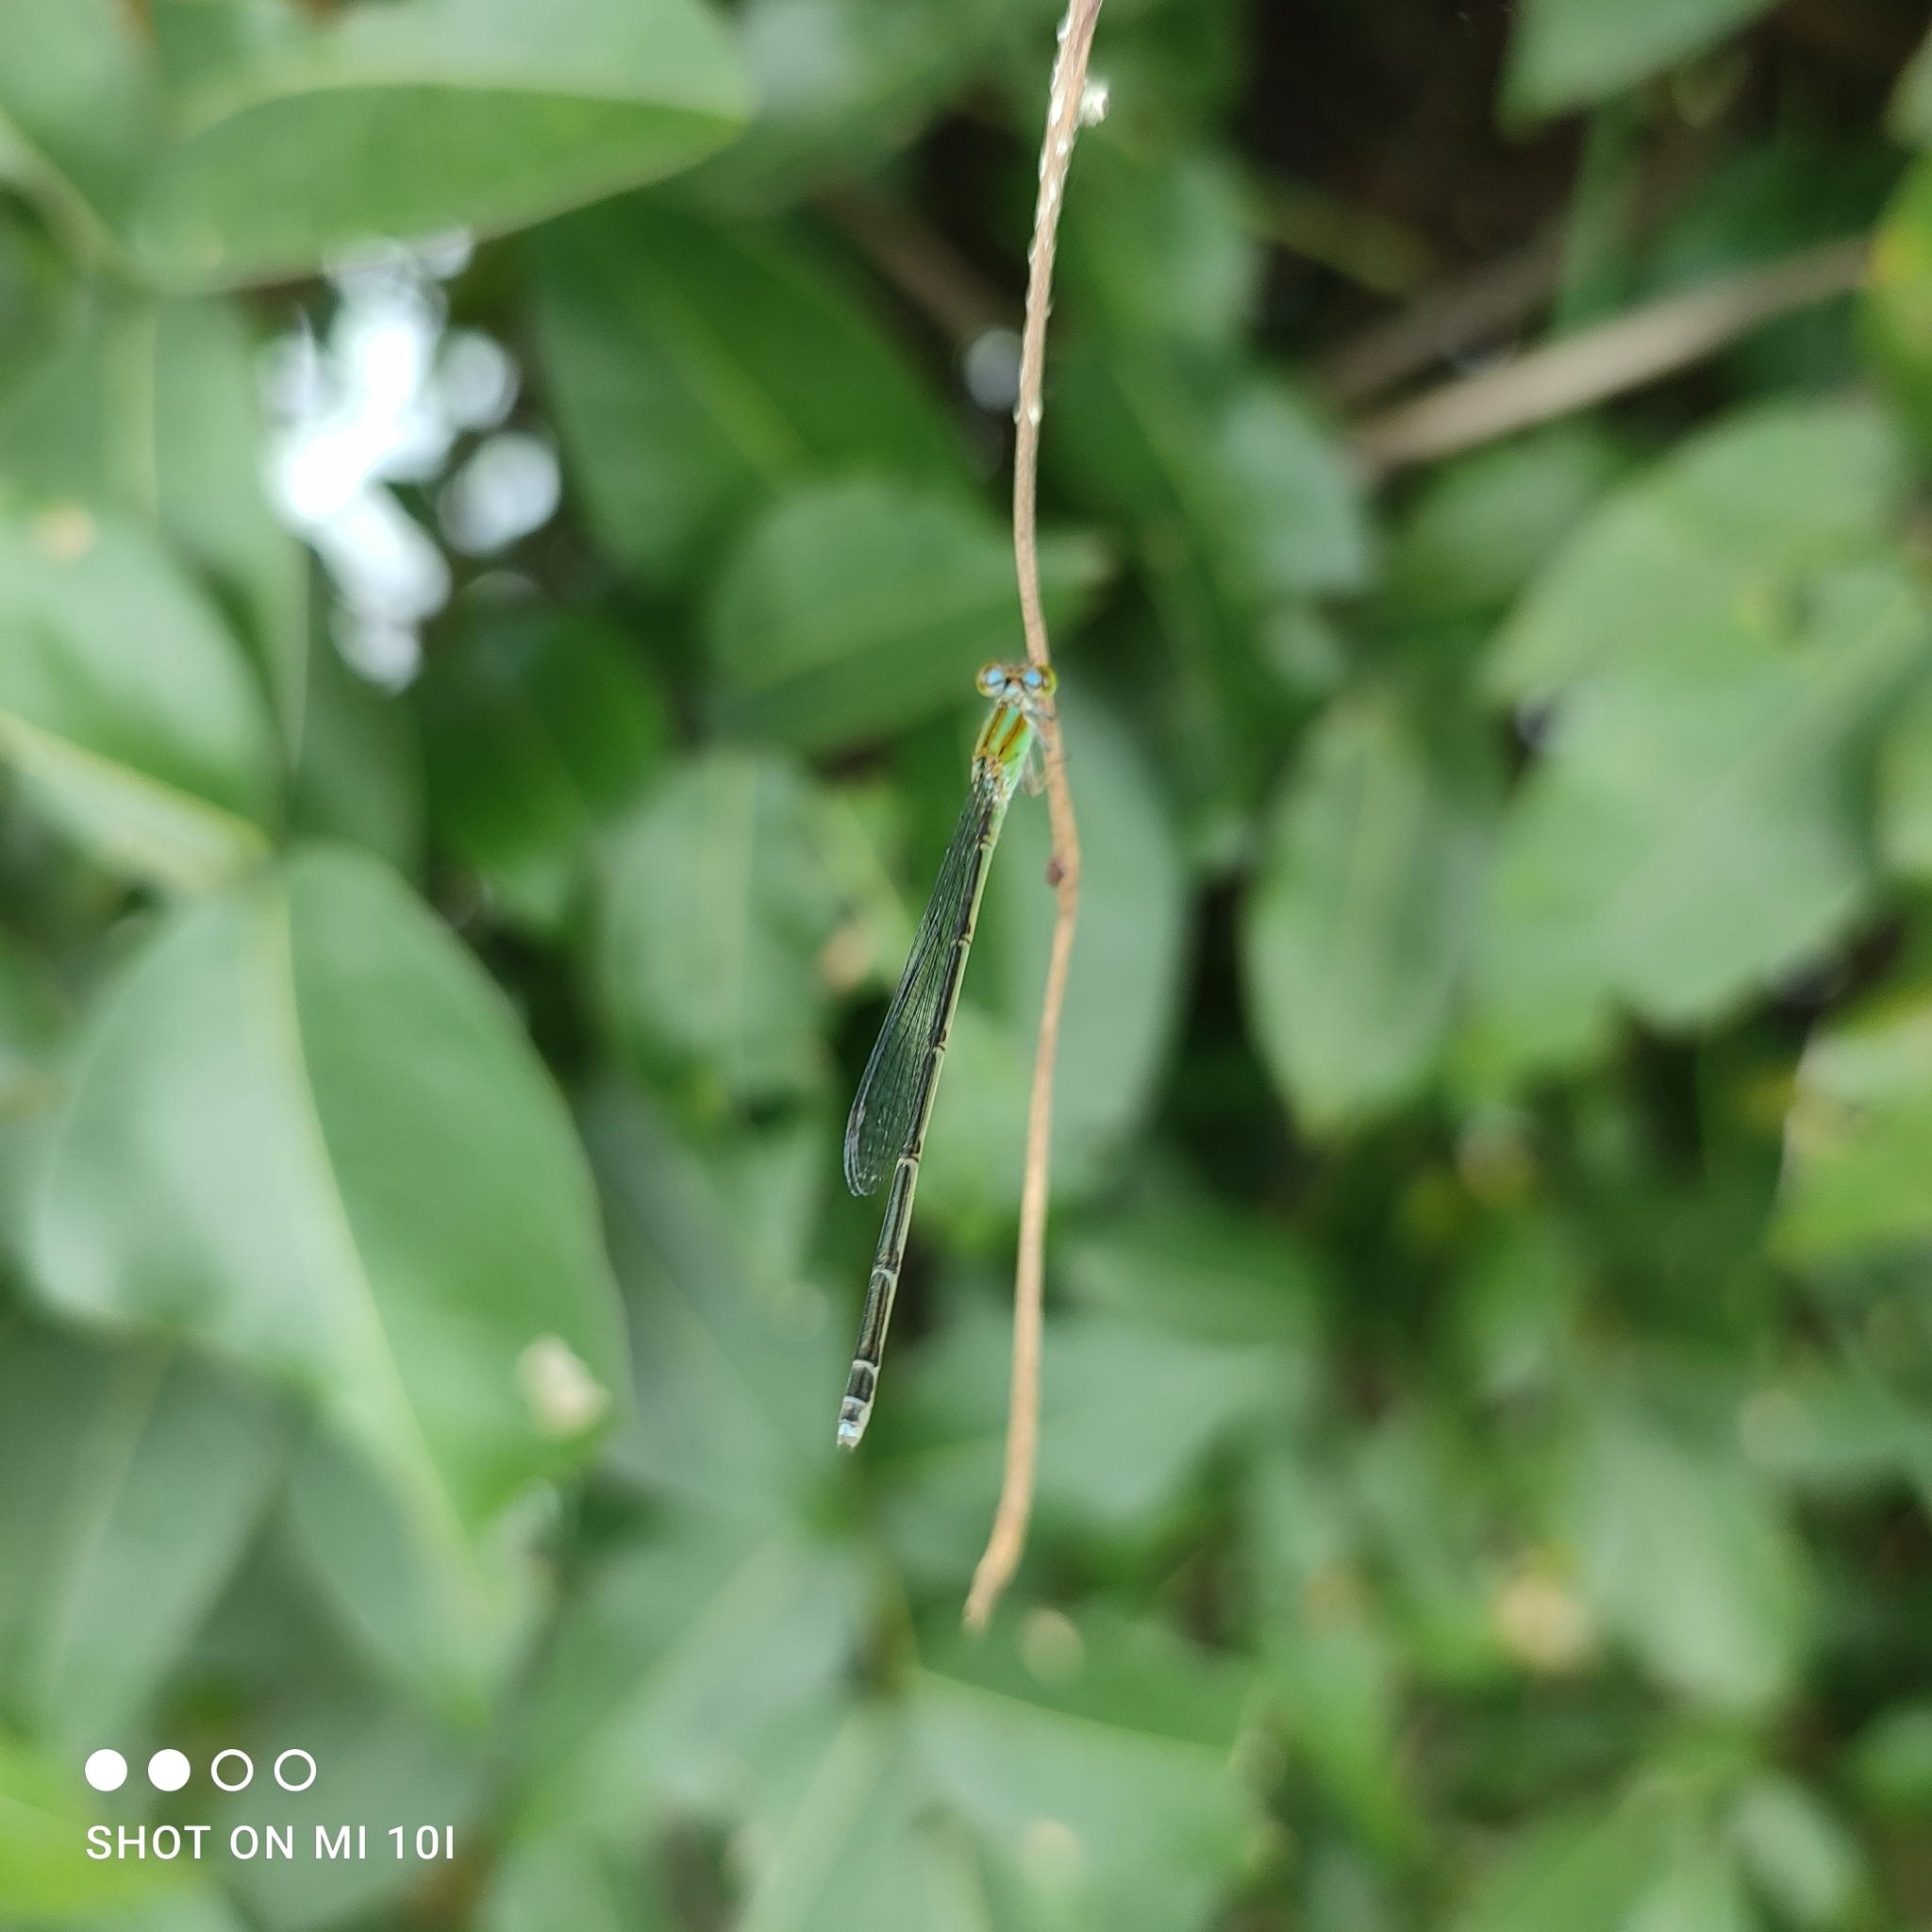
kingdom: Animalia
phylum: Arthropoda
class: Insecta
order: Odonata
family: Coenagrionidae
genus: Pseudagrion
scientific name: Pseudagrion microcephalum
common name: Blue riverdamsel
